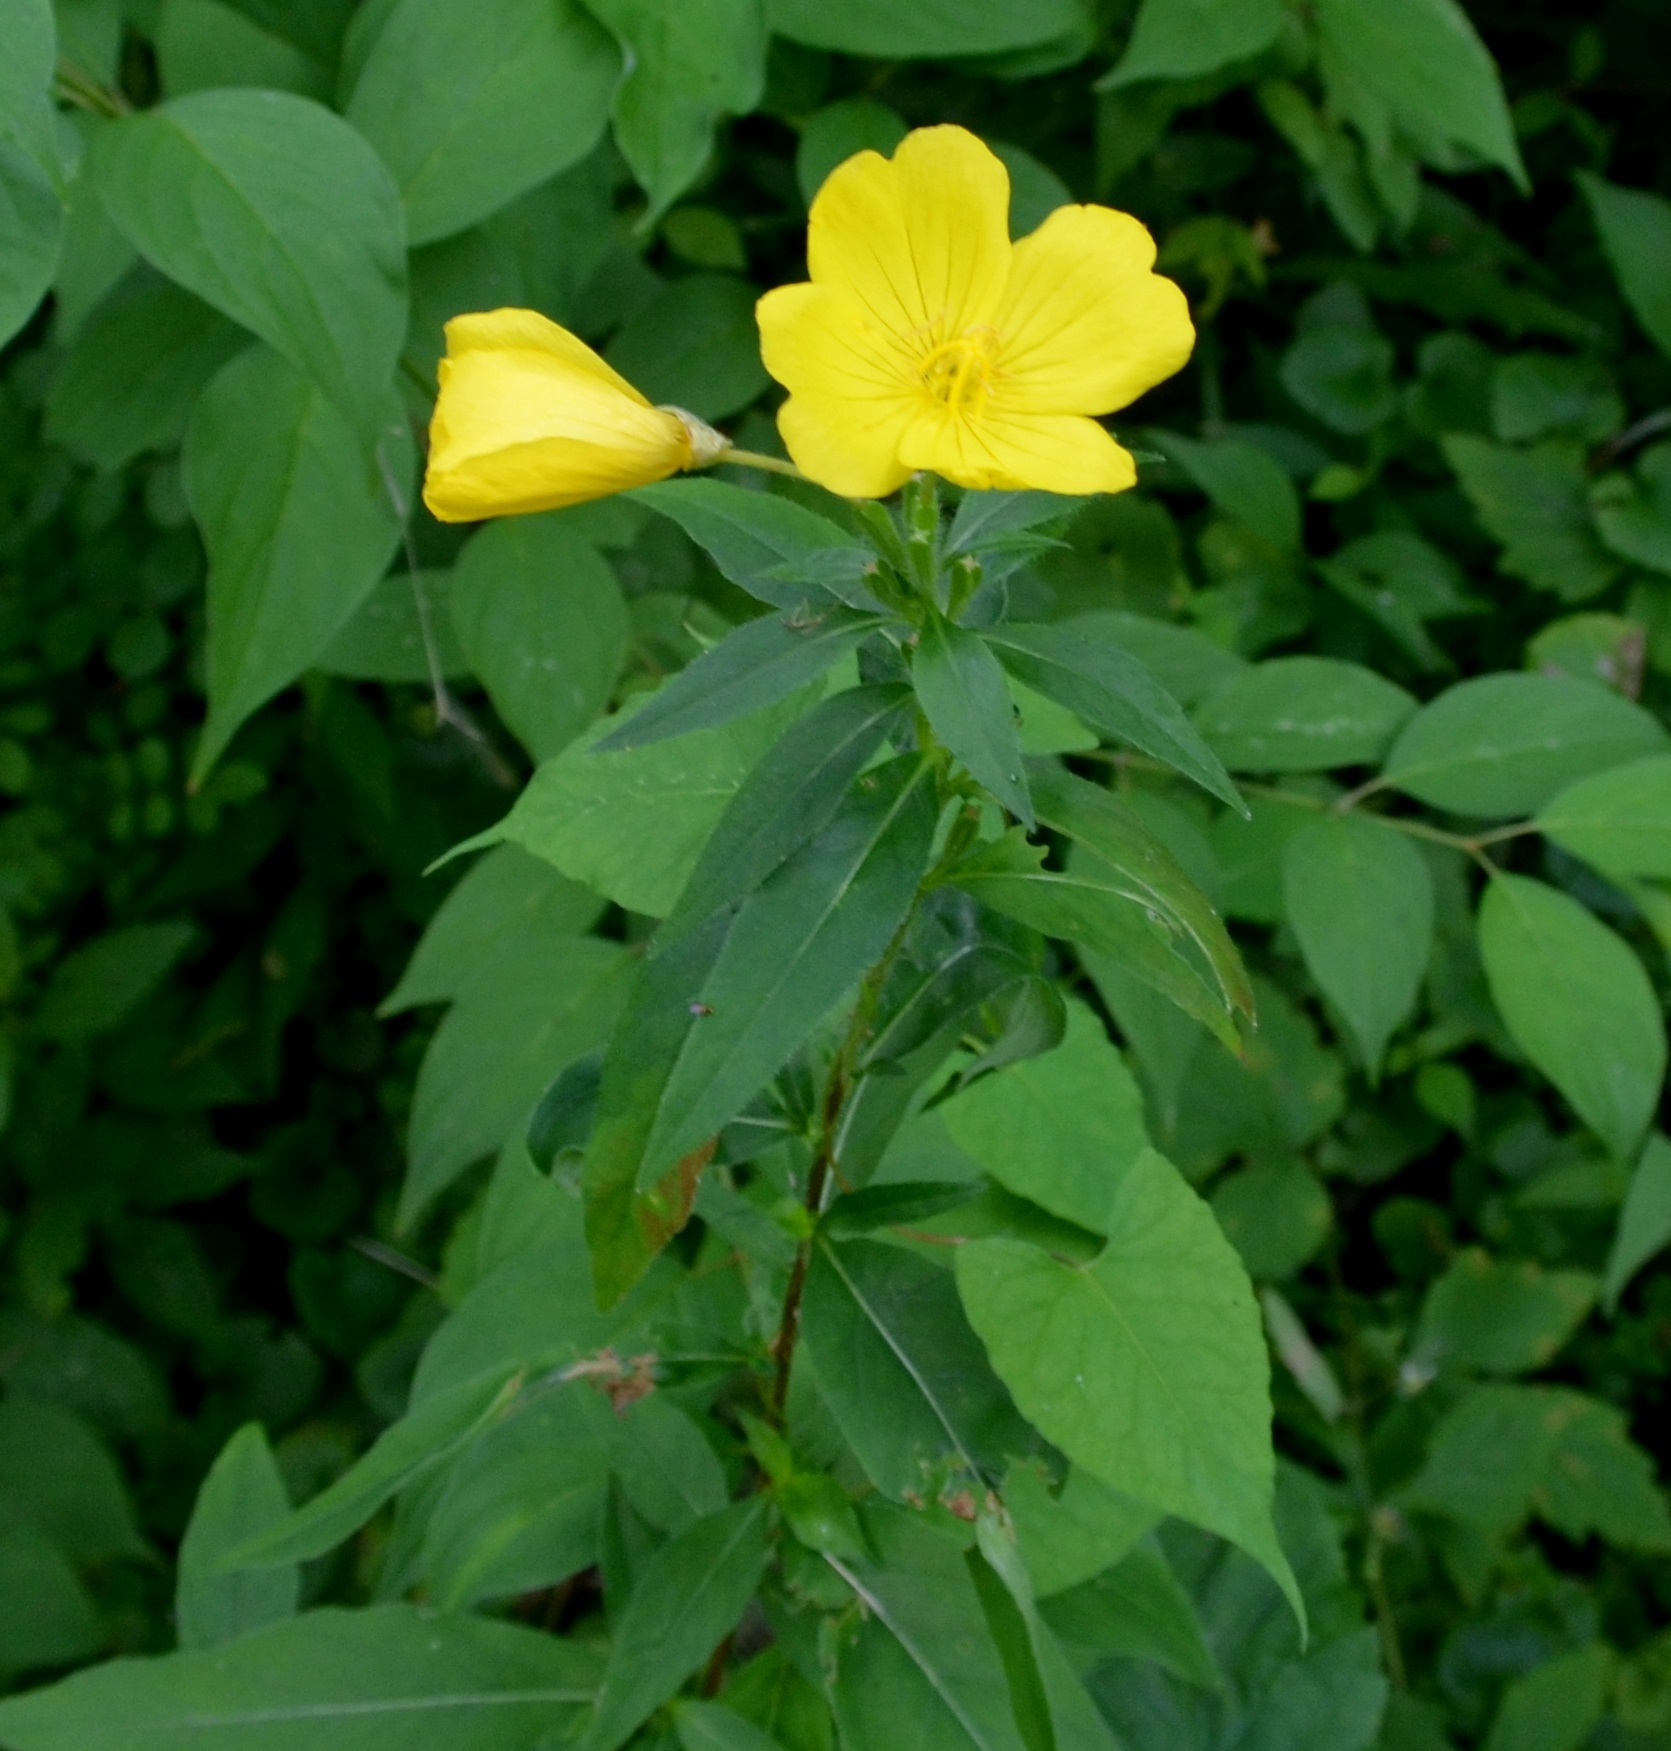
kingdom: Plantae
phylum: Tracheophyta
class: Magnoliopsida
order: Myrtales
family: Onagraceae
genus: Oenothera
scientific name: Oenothera biennis
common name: Common evening-primrose
